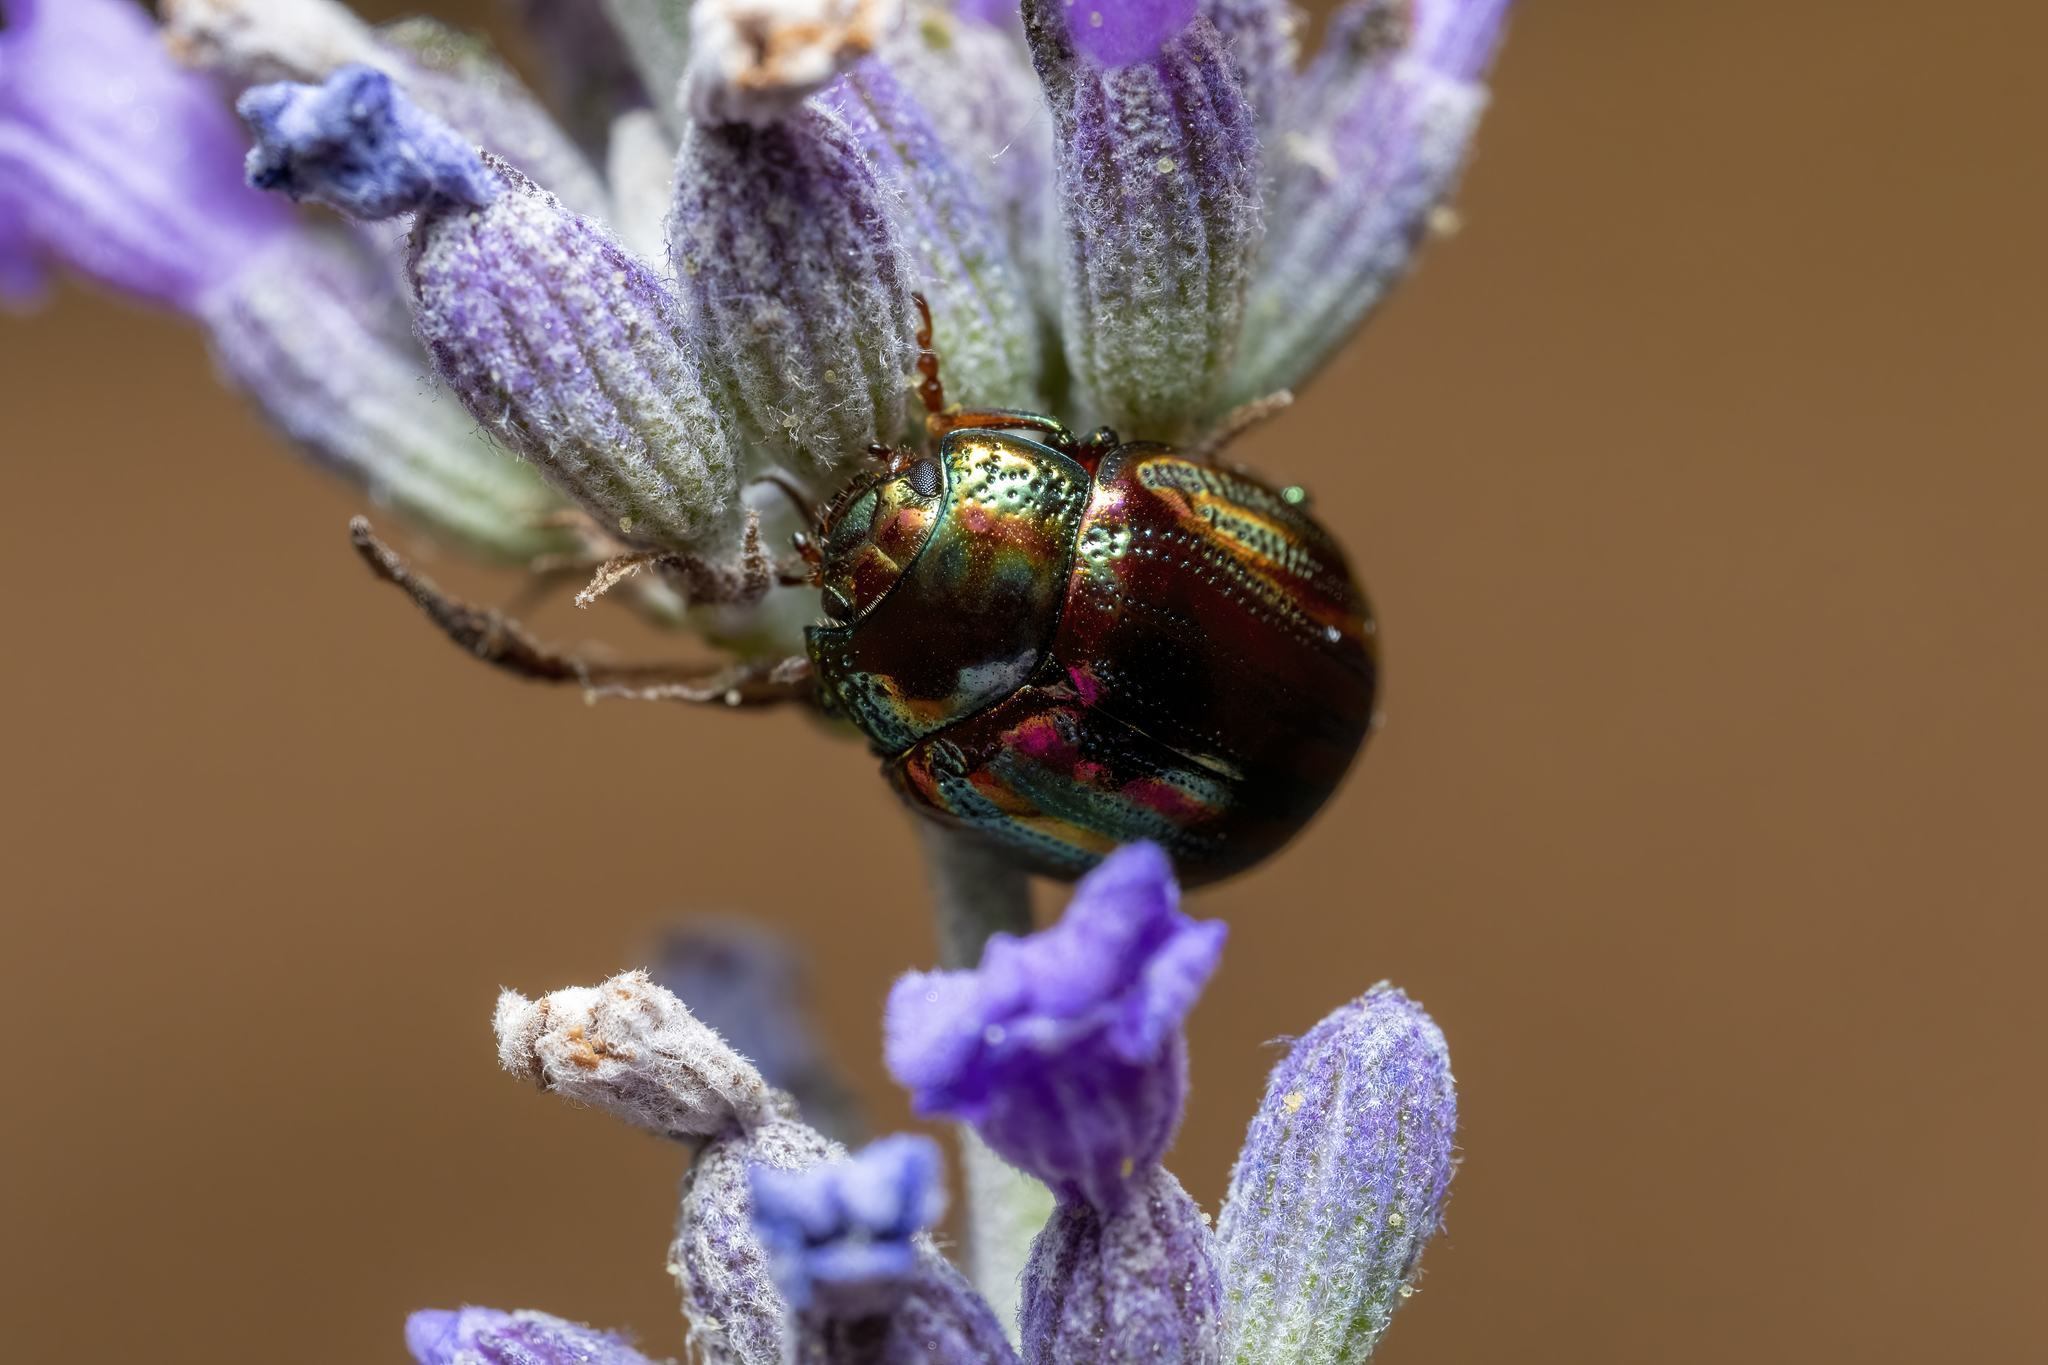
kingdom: Animalia
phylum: Arthropoda
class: Insecta
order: Coleoptera
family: Chrysomelidae
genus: Chrysolina
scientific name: Chrysolina americana
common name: Rosemary beetle
